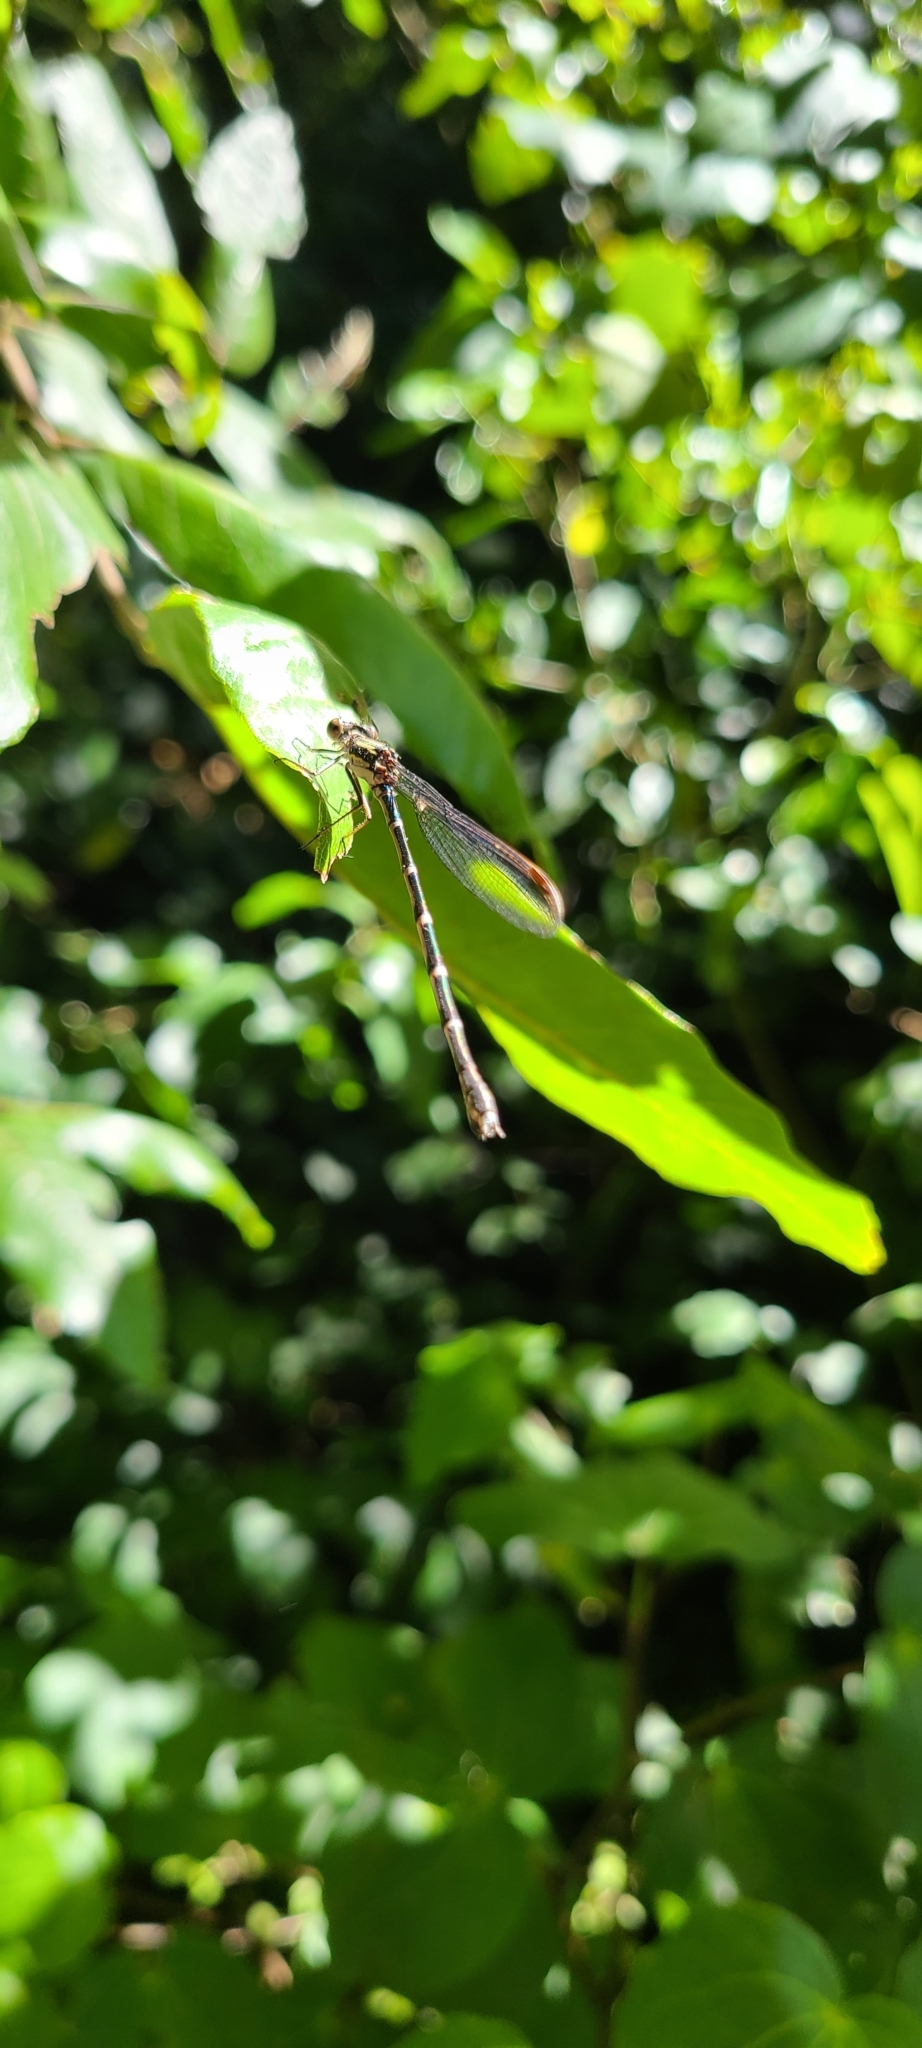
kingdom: Animalia
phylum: Arthropoda
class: Insecta
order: Odonata
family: Lestidae
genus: Austrolestes
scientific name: Austrolestes colensonis
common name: Blue damselfly
